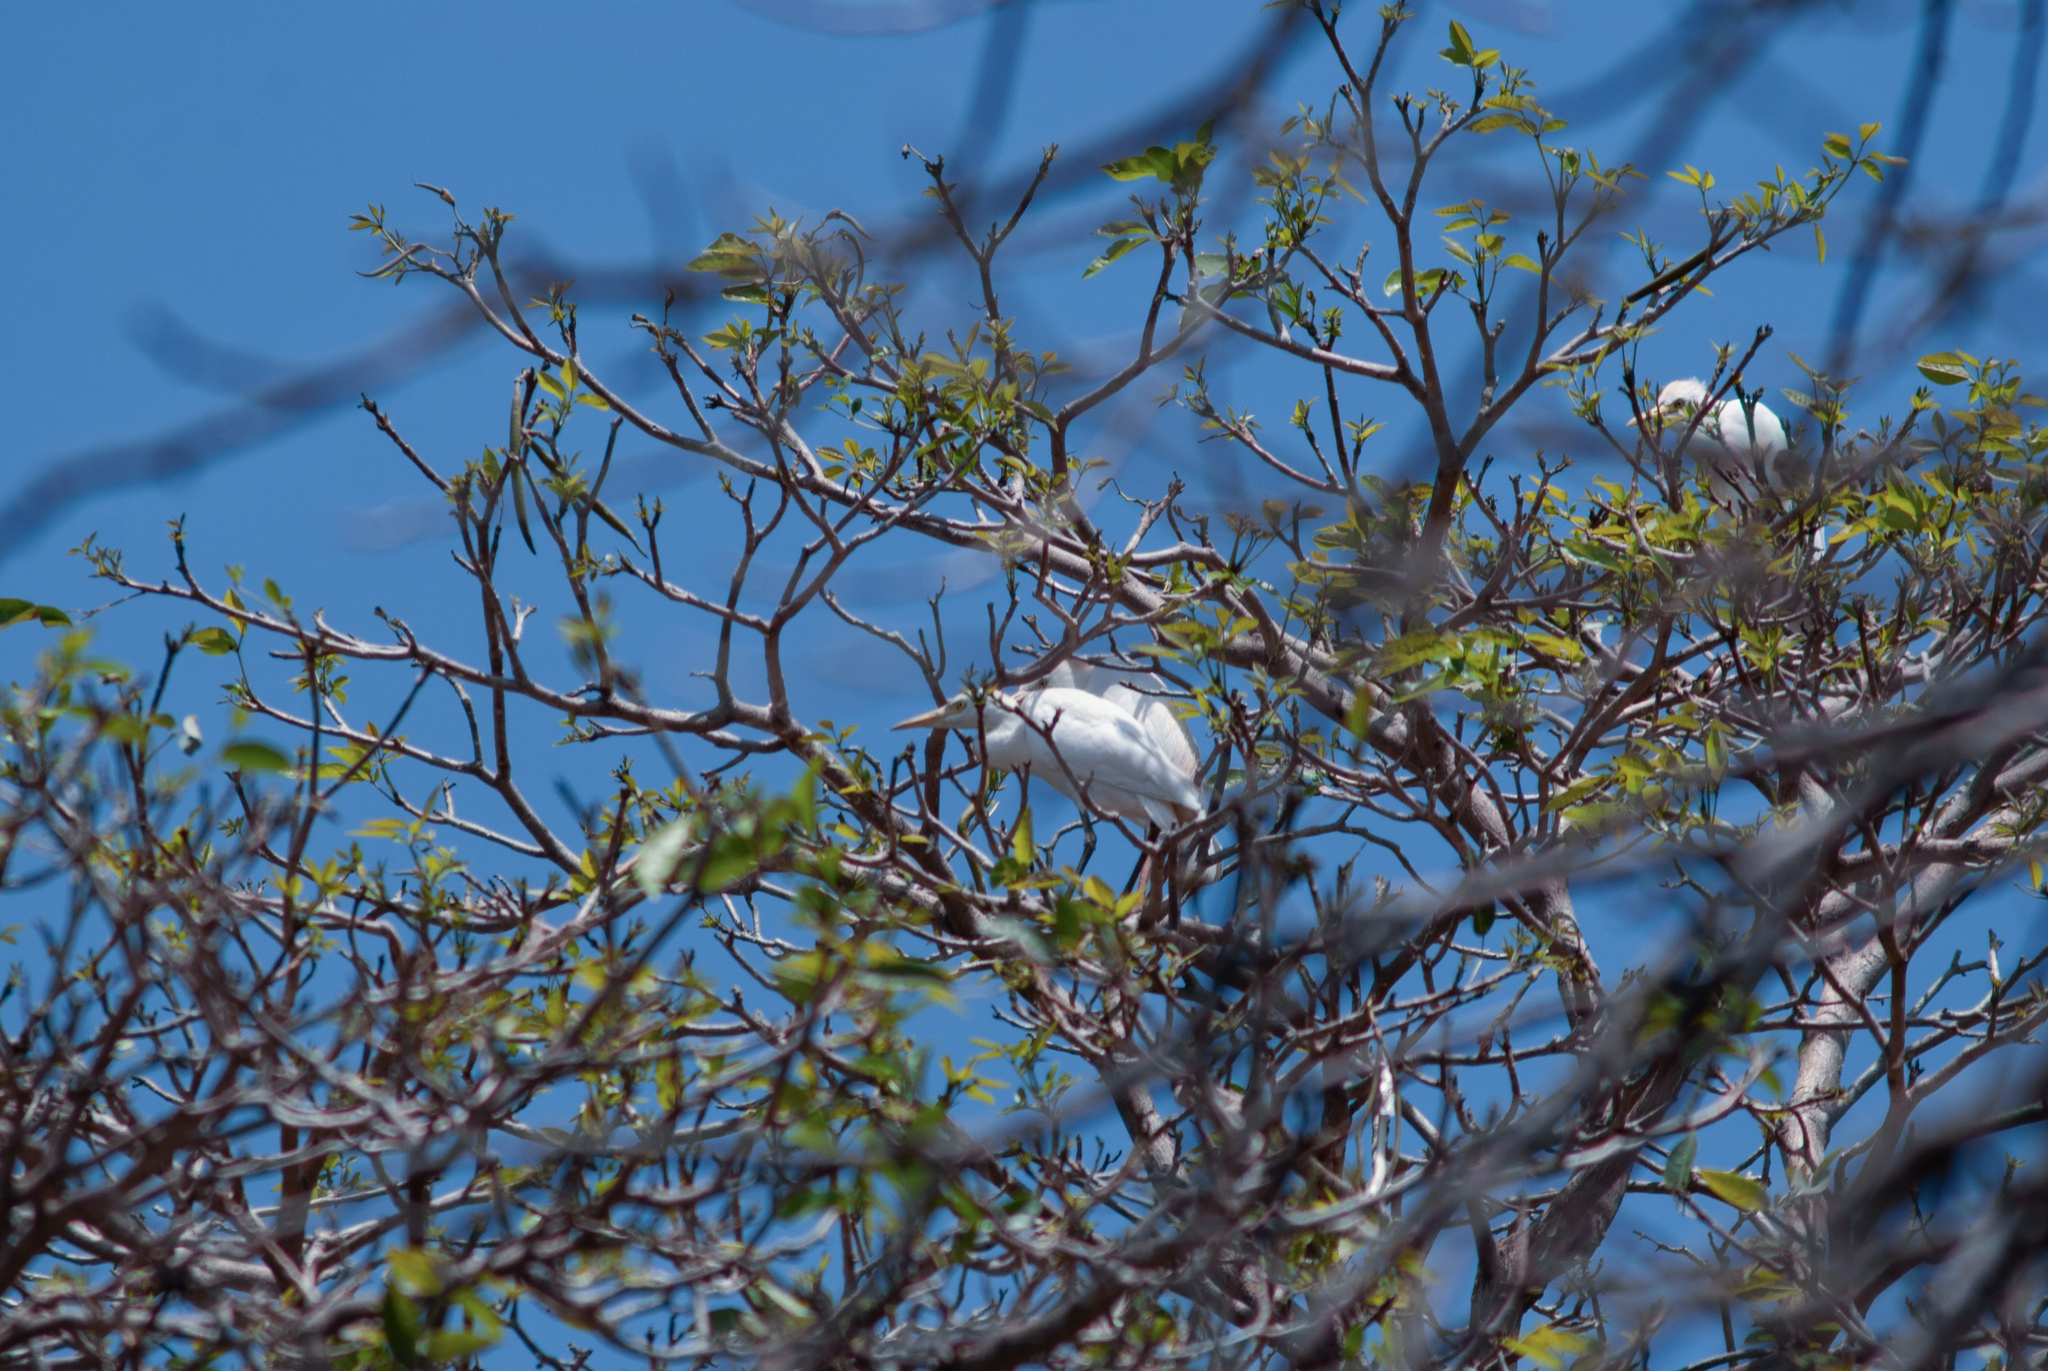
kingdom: Animalia
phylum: Chordata
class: Aves
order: Pelecaniformes
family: Ardeidae
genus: Bubulcus
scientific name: Bubulcus ibis
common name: Cattle egret
